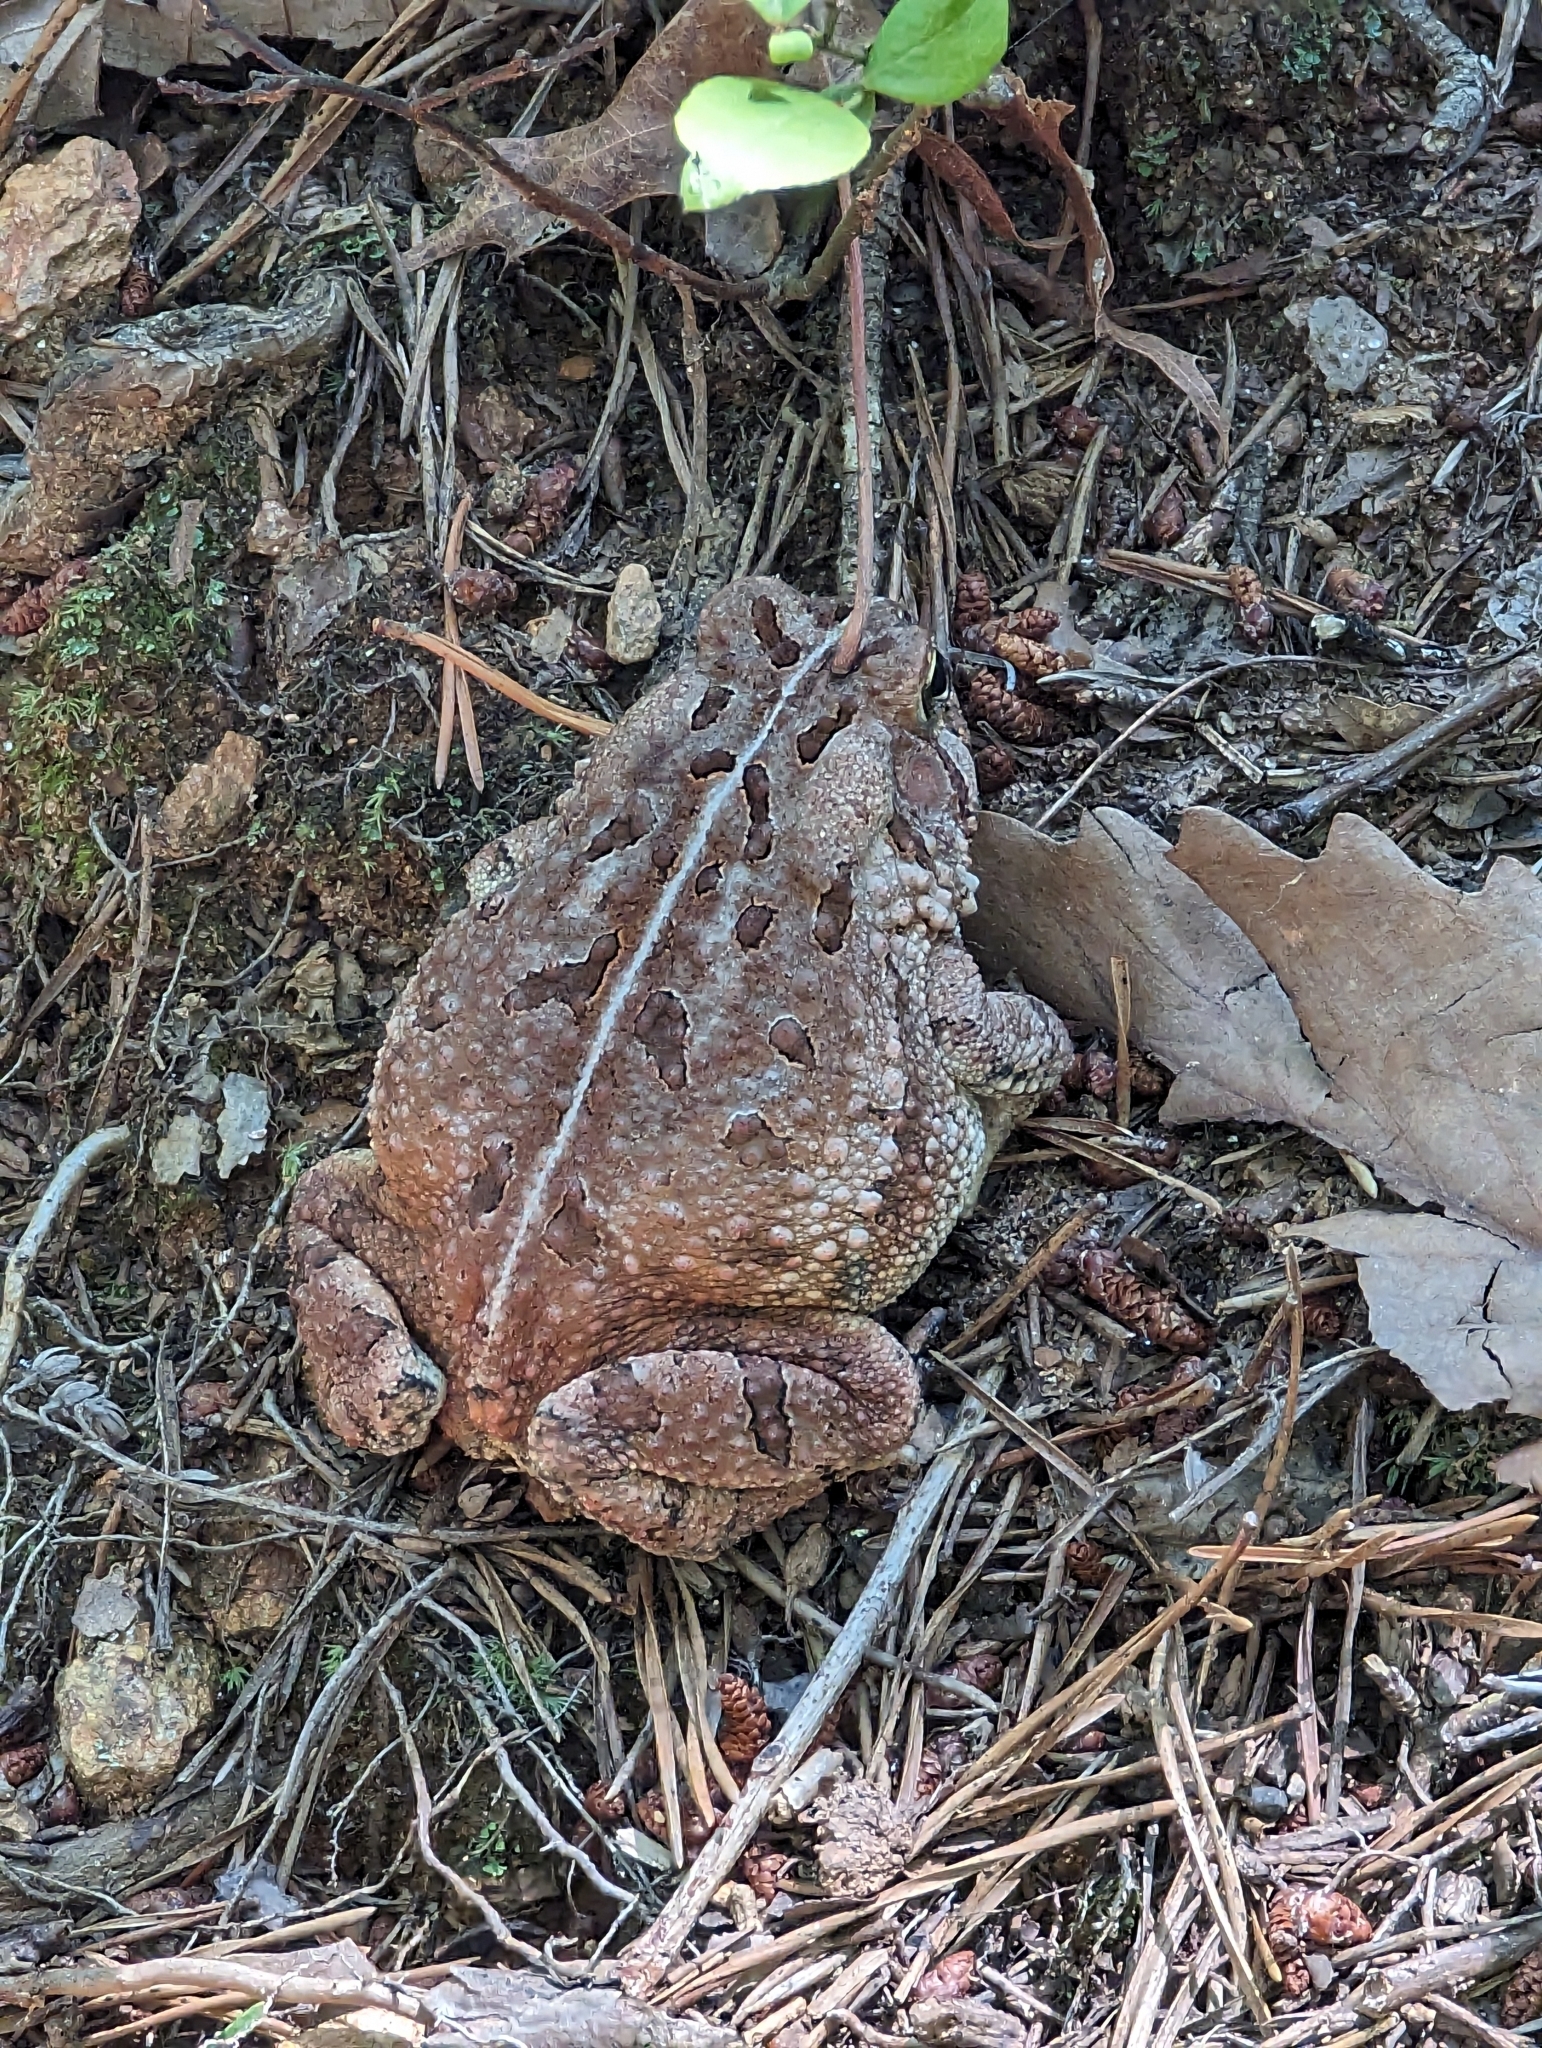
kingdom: Animalia
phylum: Chordata
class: Amphibia
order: Anura
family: Bufonidae
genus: Anaxyrus
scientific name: Anaxyrus fowleri
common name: Fowler's toad
